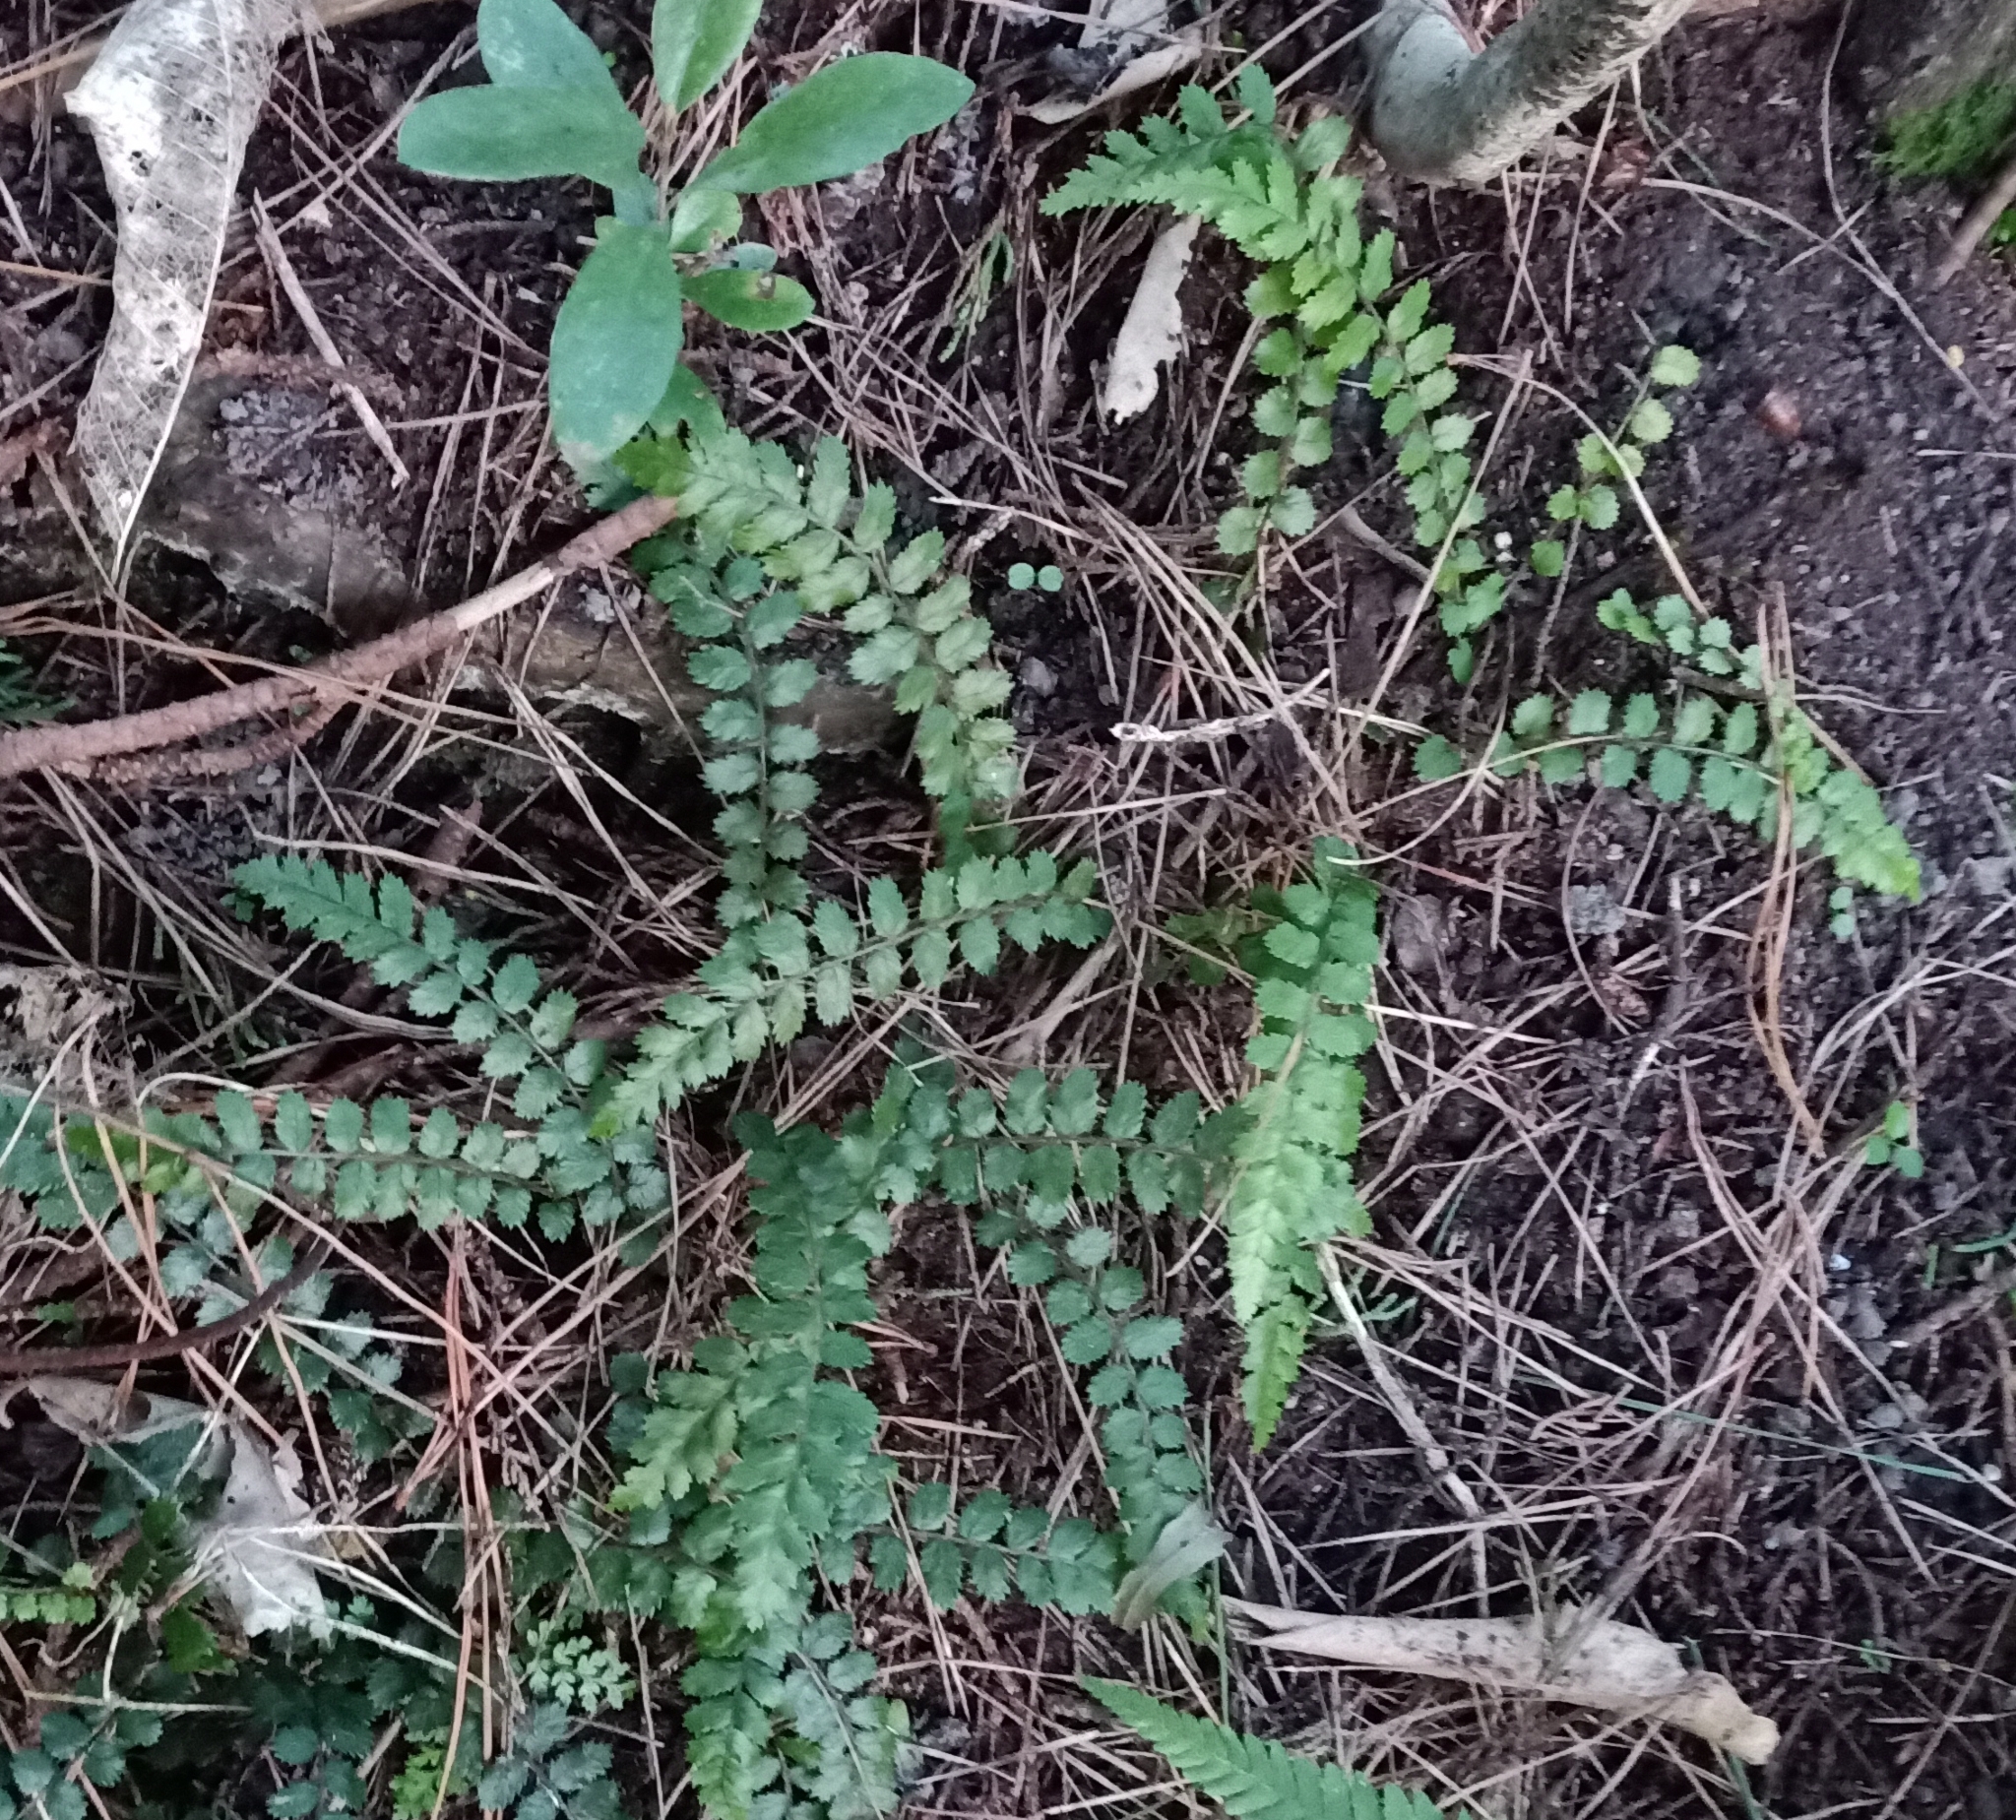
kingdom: Plantae
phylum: Tracheophyta
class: Polypodiopsida
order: Polypodiales
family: Blechnaceae
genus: Icarus
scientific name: Icarus filiformis
